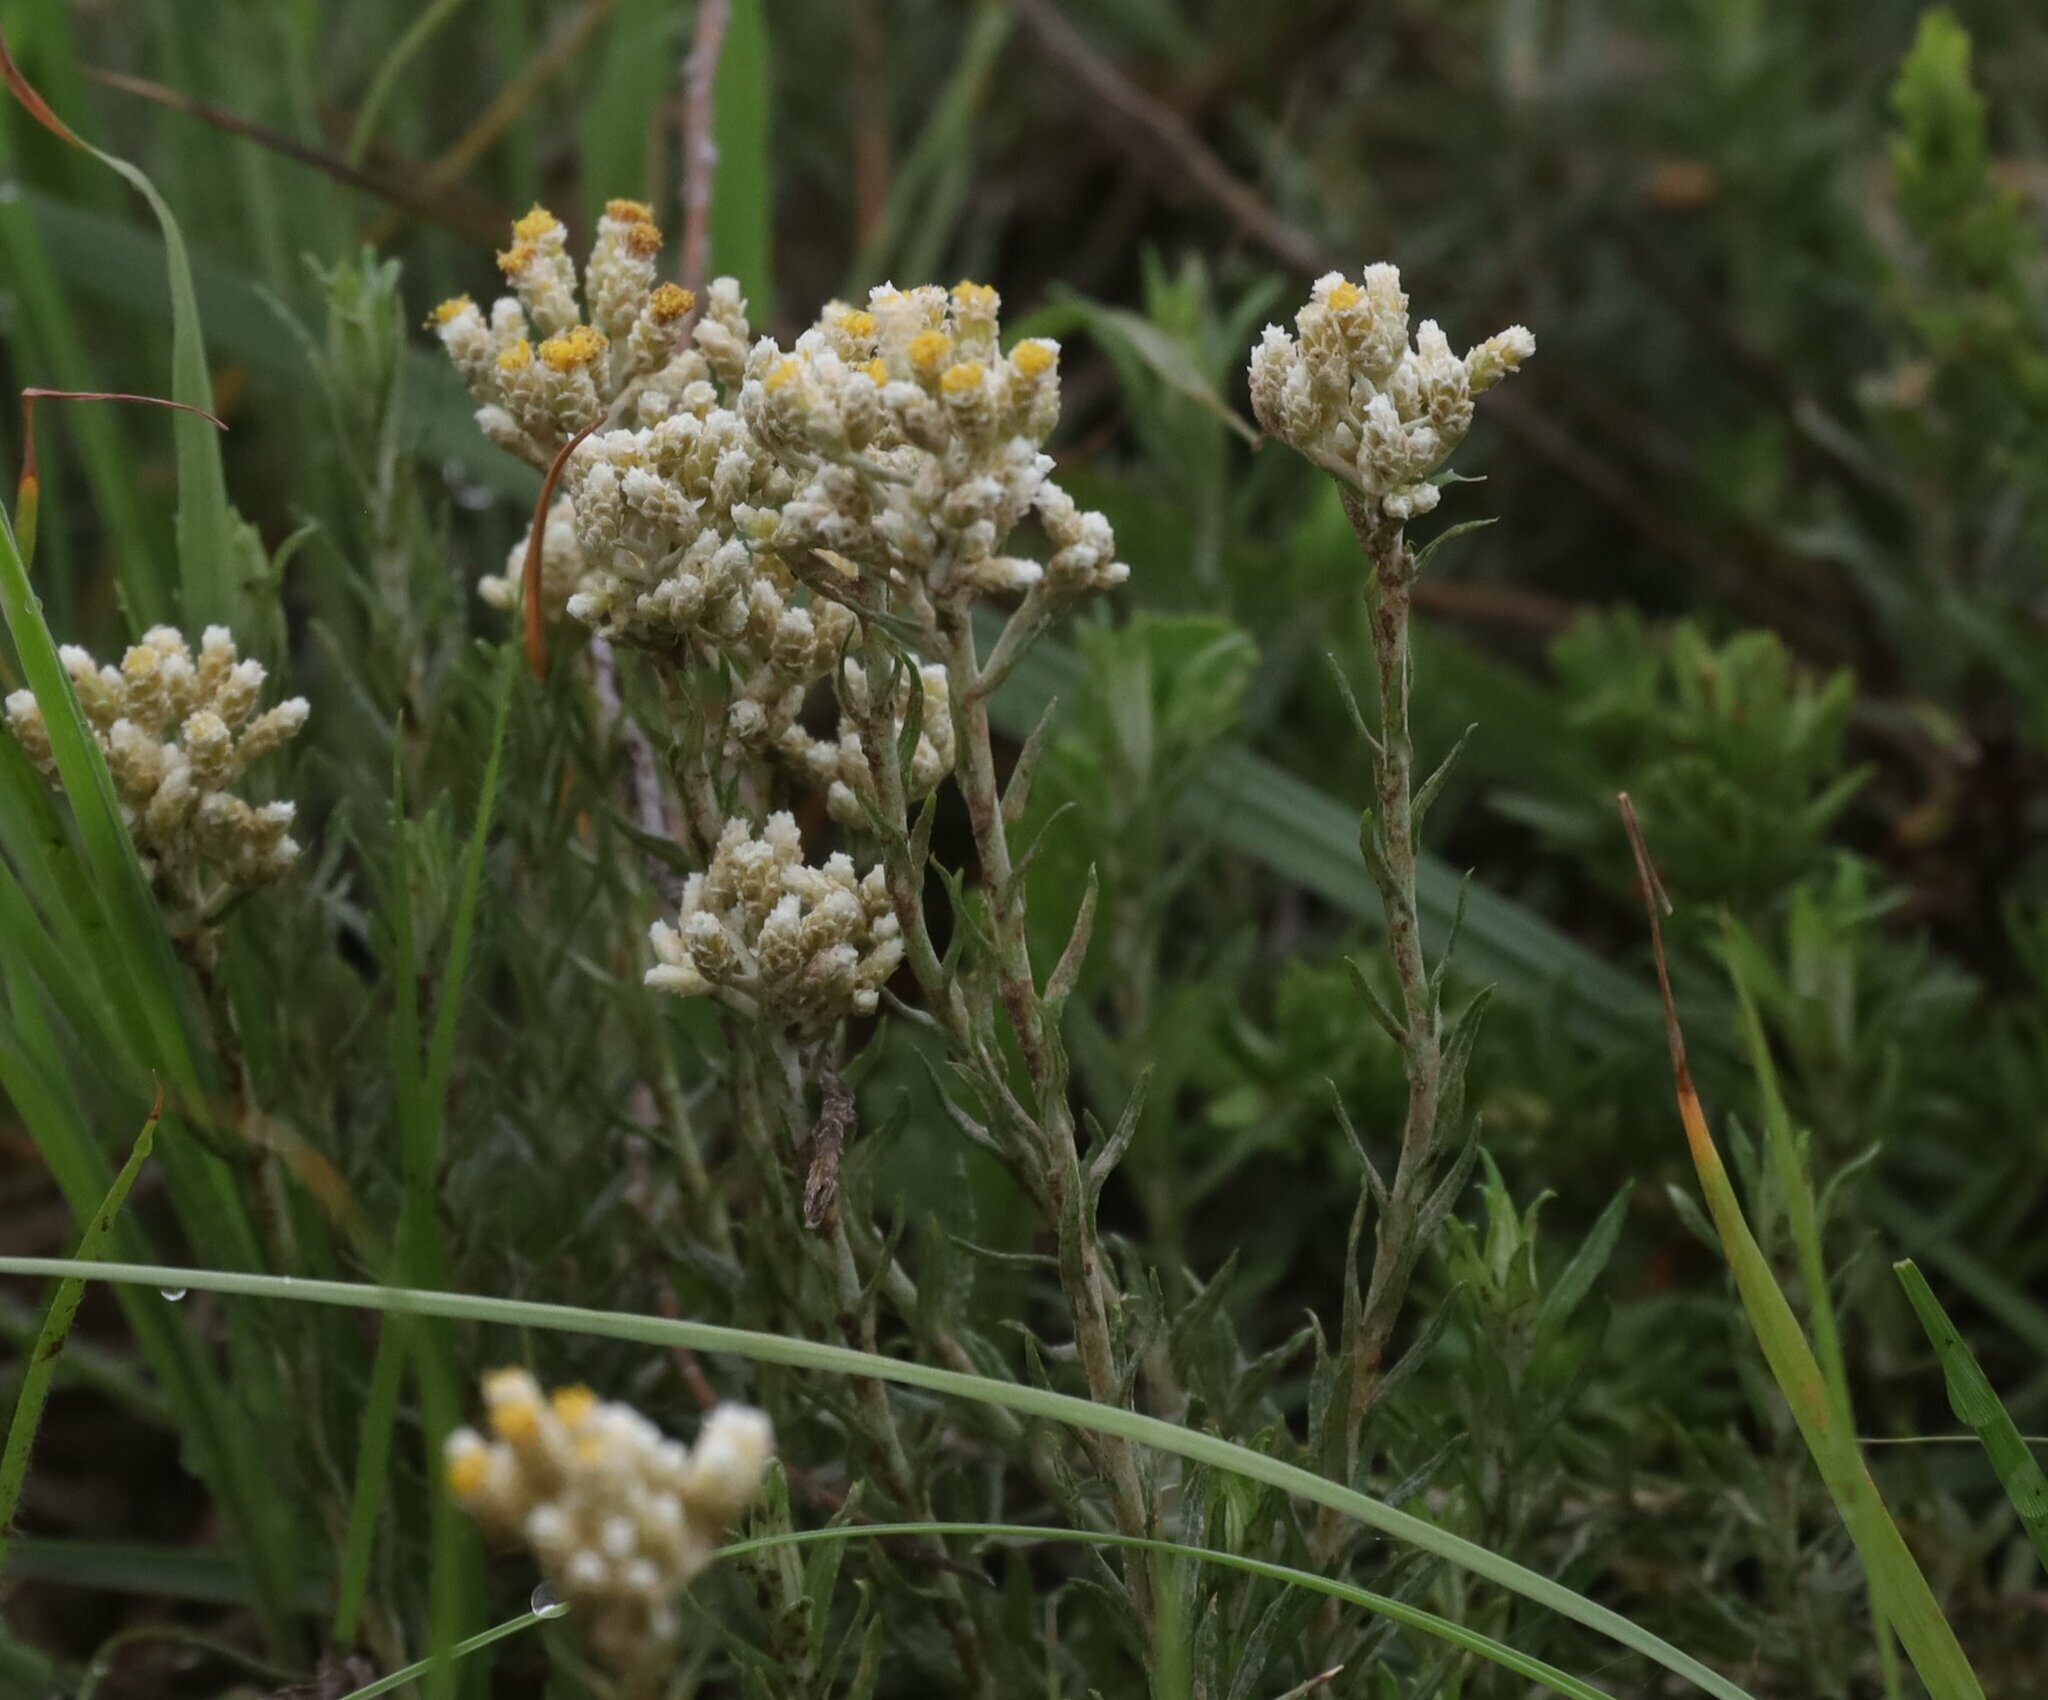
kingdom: Plantae
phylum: Tracheophyta
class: Magnoliopsida
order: Asterales
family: Asteraceae
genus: Helichrysum
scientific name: Helichrysum rugulosum
